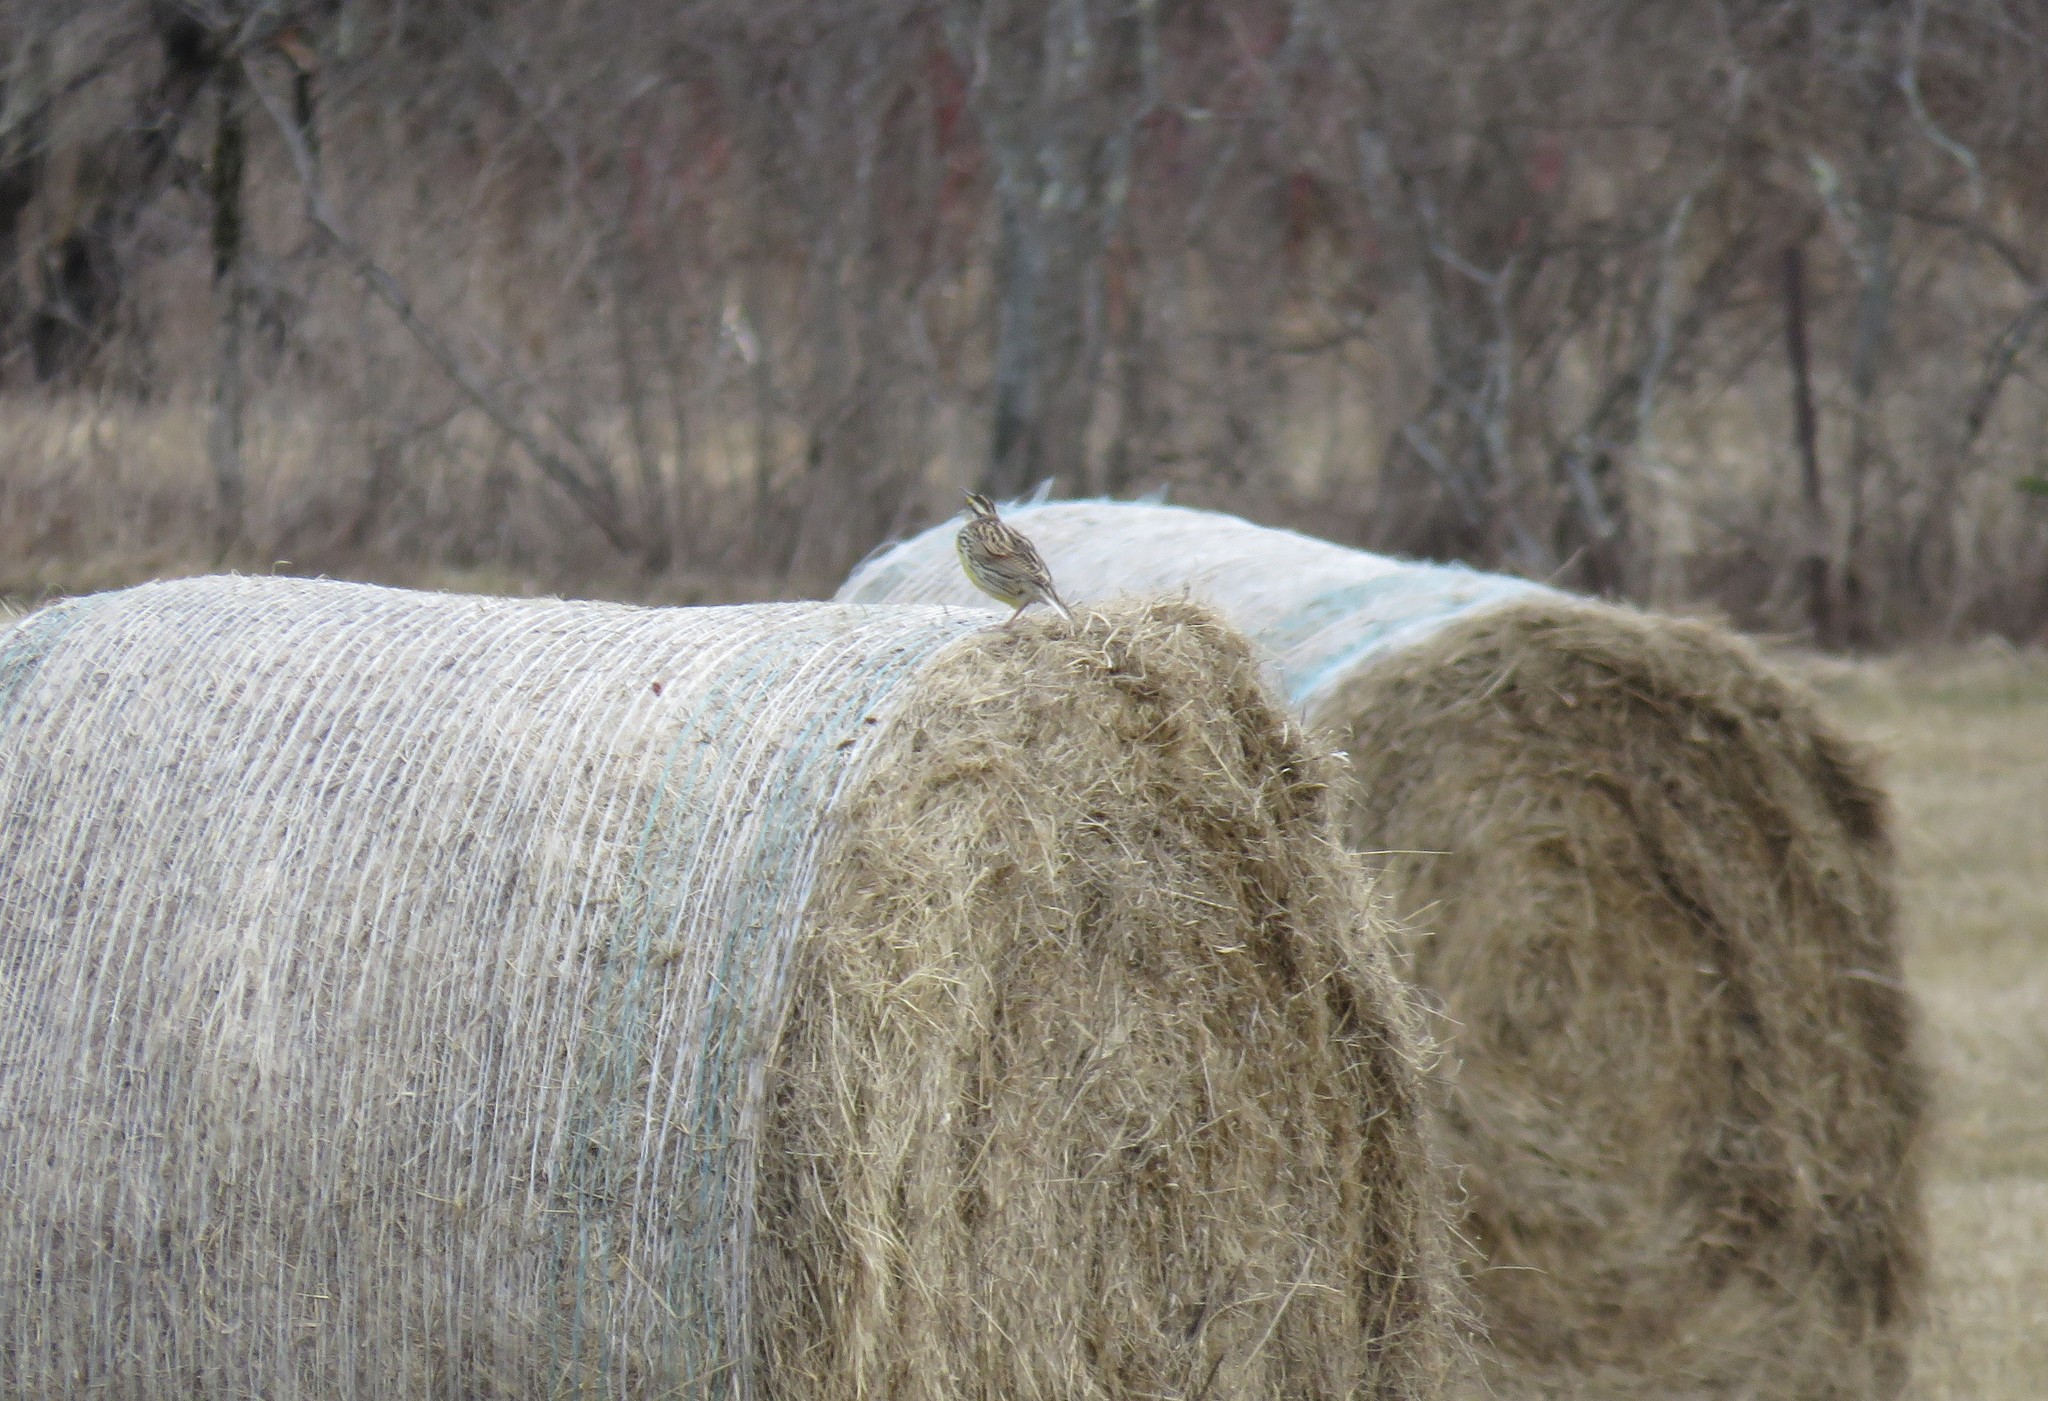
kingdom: Animalia
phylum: Chordata
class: Aves
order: Passeriformes
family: Icteridae
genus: Sturnella
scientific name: Sturnella magna
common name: Eastern meadowlark
